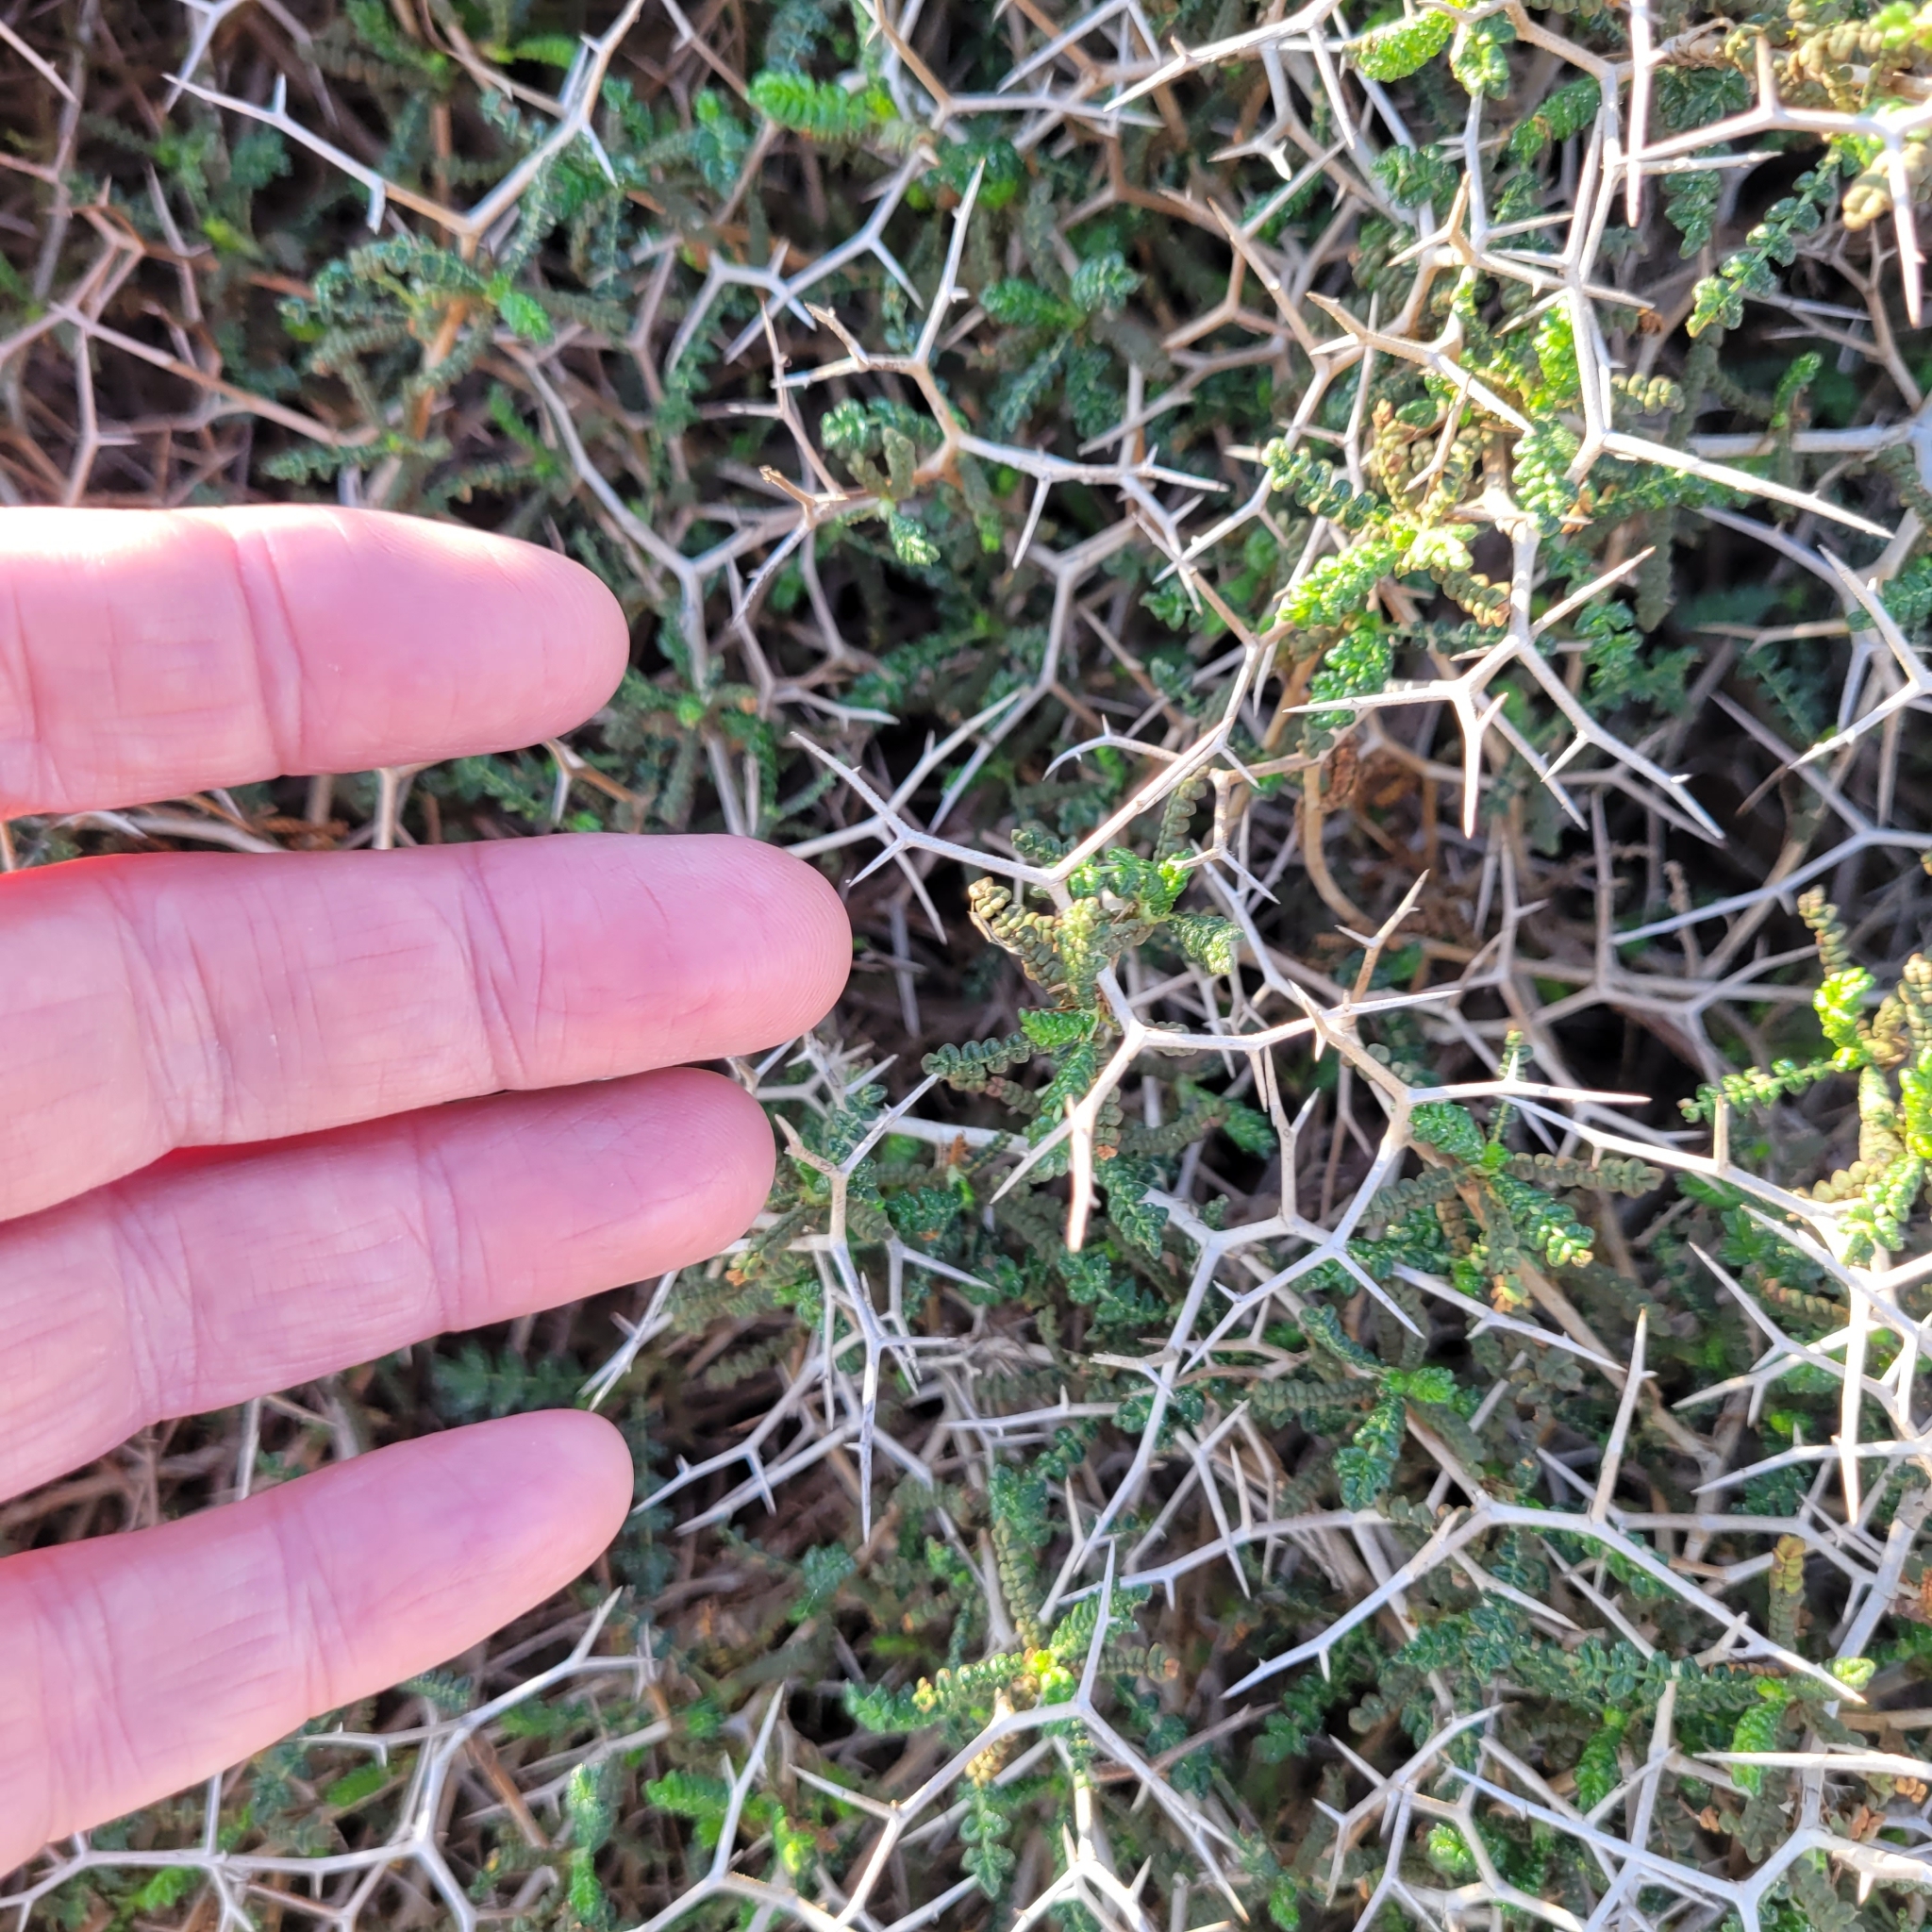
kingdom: Plantae
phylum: Tracheophyta
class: Magnoliopsida
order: Rosales
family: Rosaceae
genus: Sarcopoterium
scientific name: Sarcopoterium spinosum
